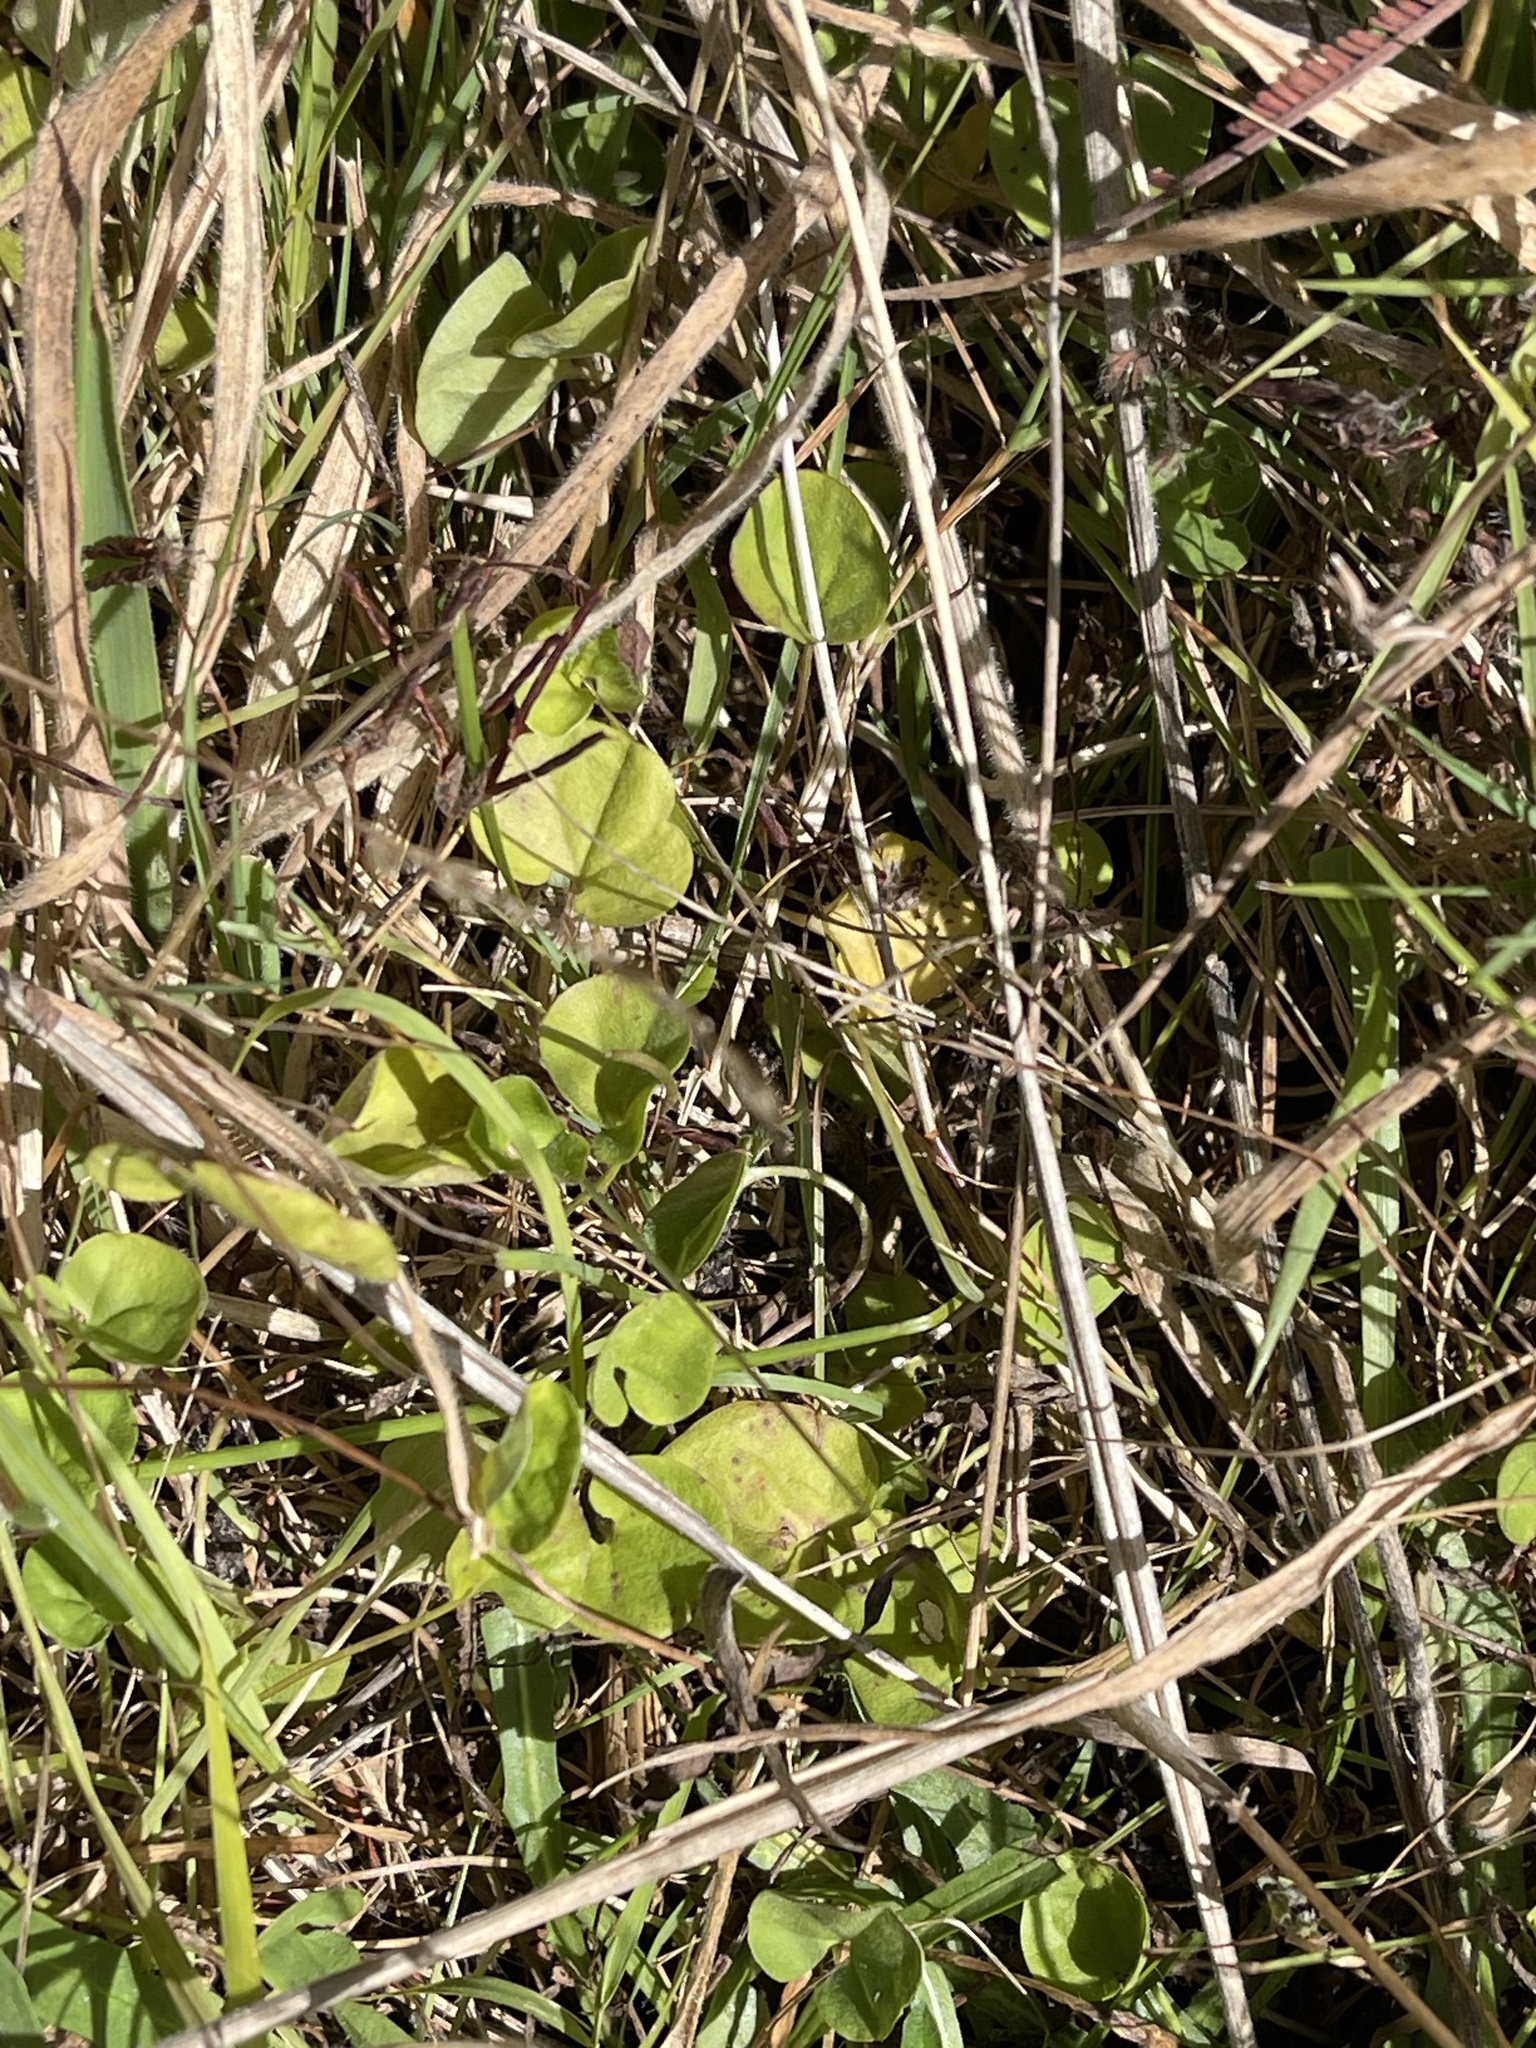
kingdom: Plantae
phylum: Tracheophyta
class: Magnoliopsida
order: Solanales
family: Convolvulaceae
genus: Dichondra
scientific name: Dichondra repens
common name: Kidneyweed
